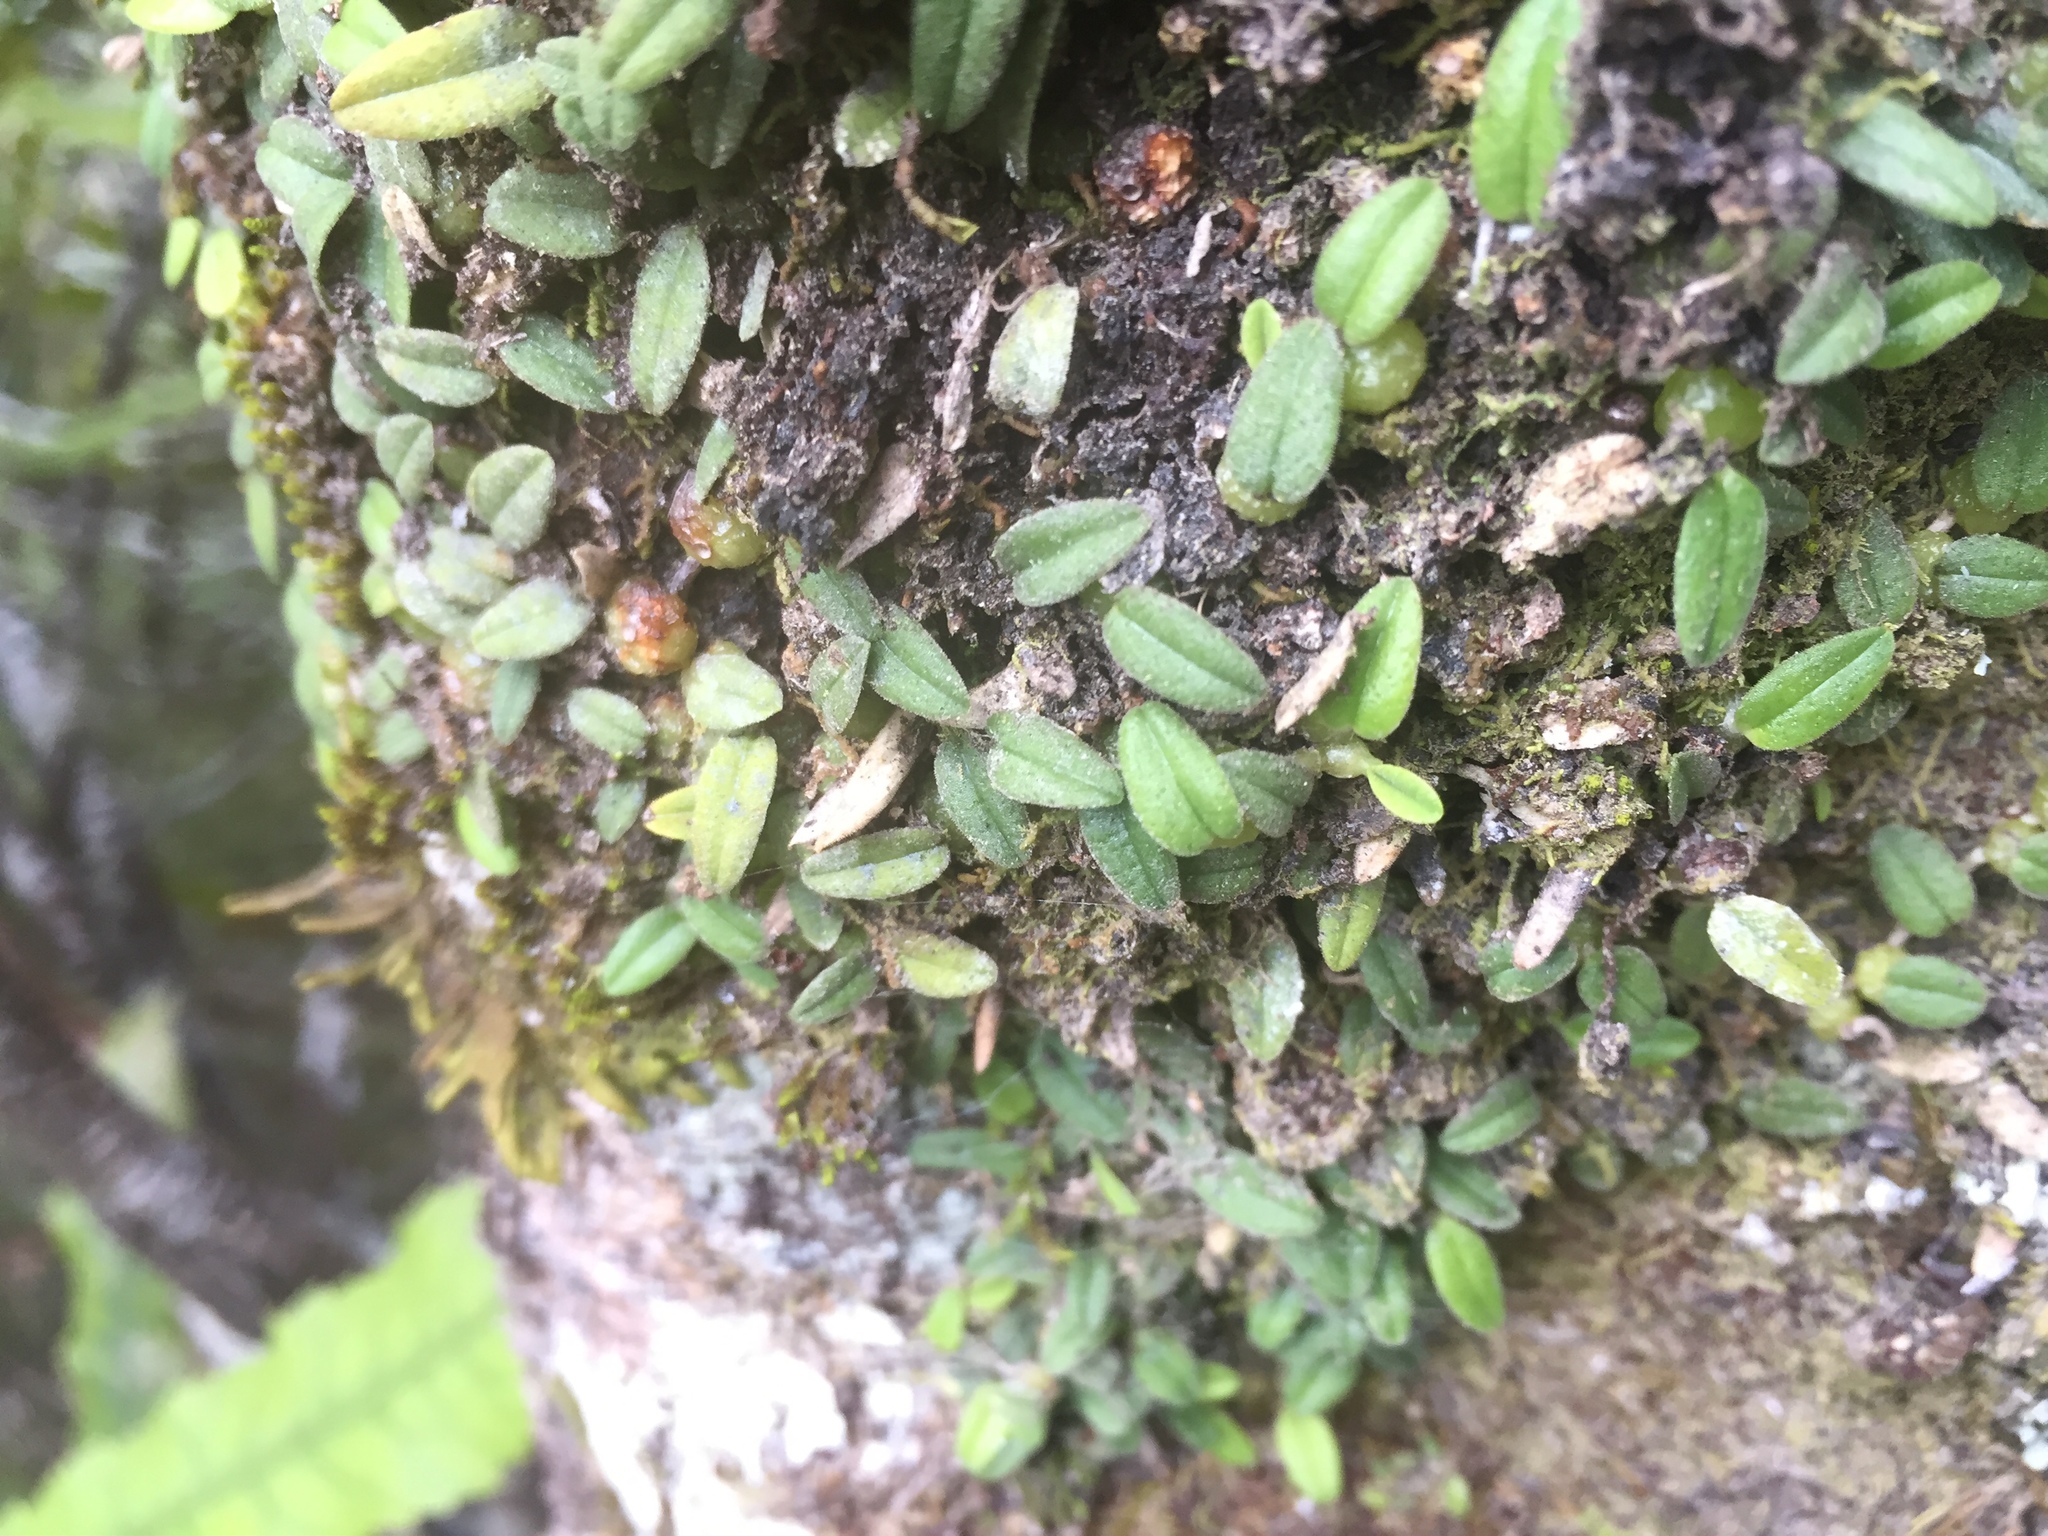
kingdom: Plantae
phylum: Tracheophyta
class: Liliopsida
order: Asparagales
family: Orchidaceae
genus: Bulbophyllum
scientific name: Bulbophyllum pygmaeum
